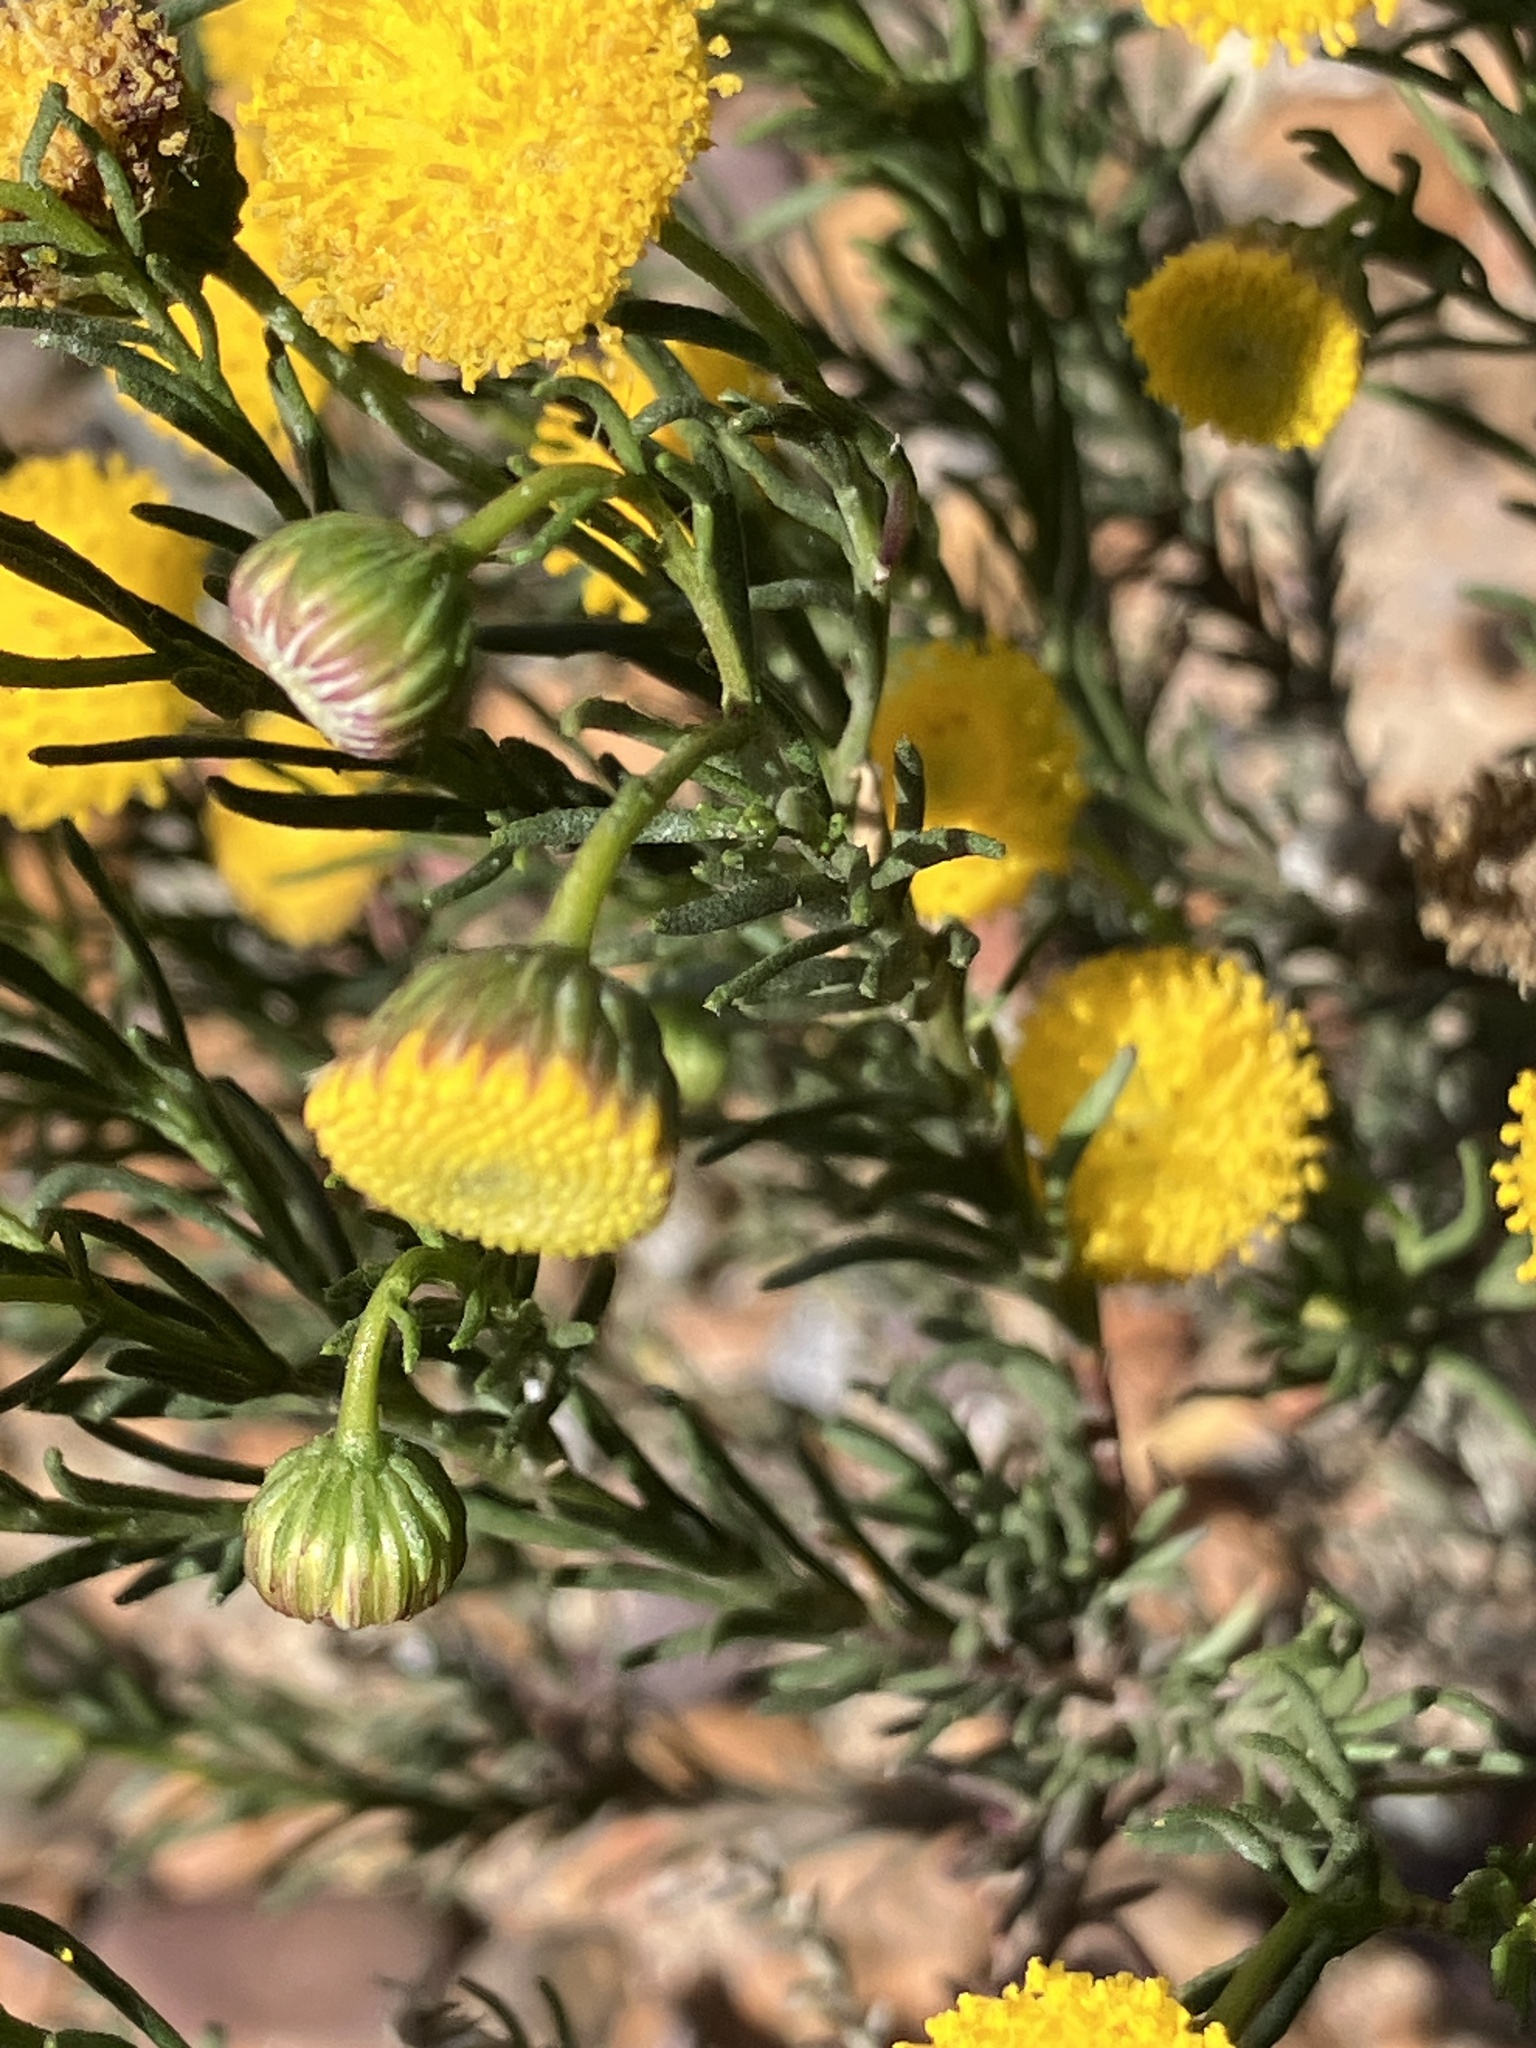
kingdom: Plantae
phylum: Tracheophyta
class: Magnoliopsida
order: Asterales
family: Asteraceae
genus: Chrysocoma
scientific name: Chrysocoma ciliata
